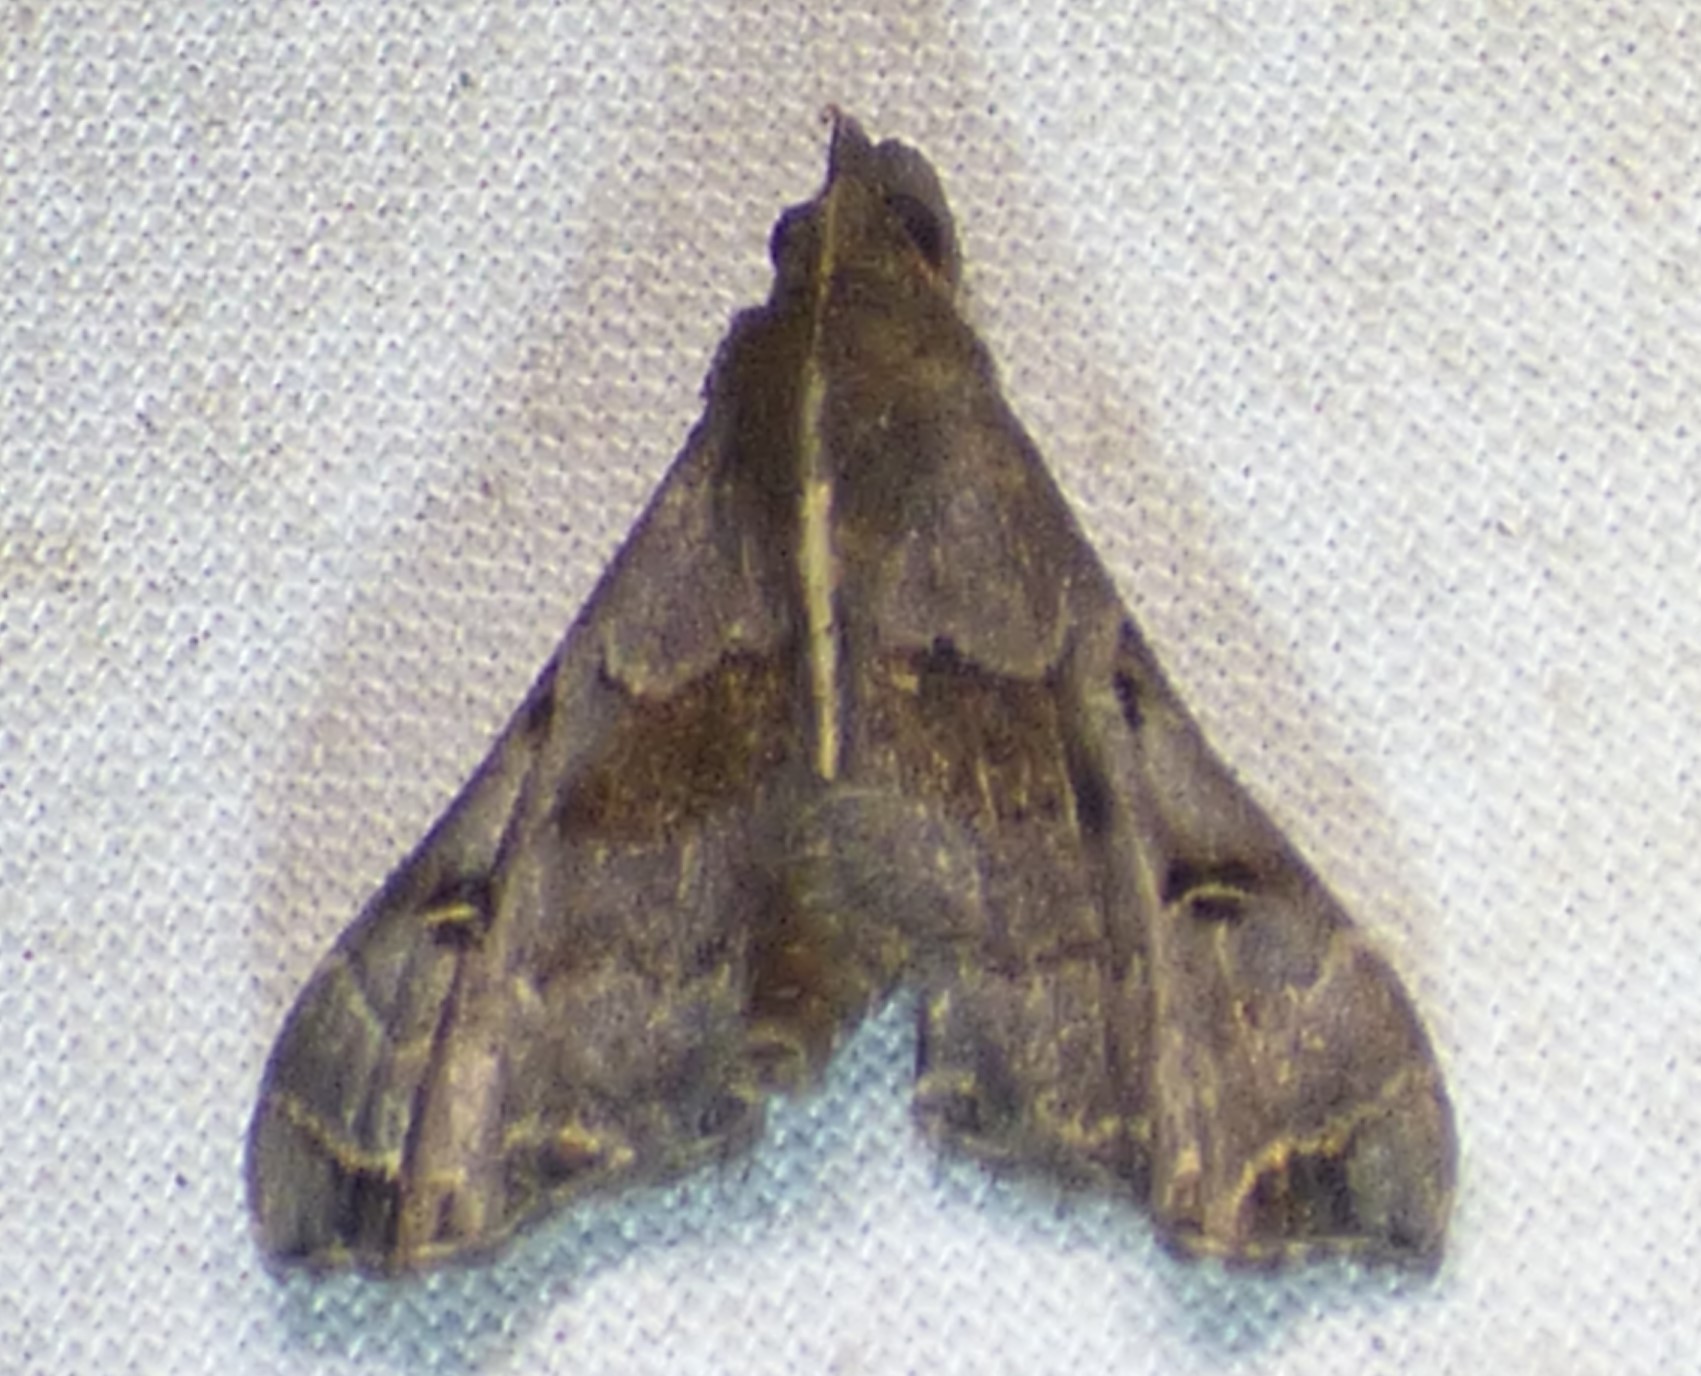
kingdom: Animalia
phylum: Arthropoda
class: Insecta
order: Lepidoptera
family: Erebidae
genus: Palthis
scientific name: Palthis asopialis
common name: Faint-spotted palthis moth
